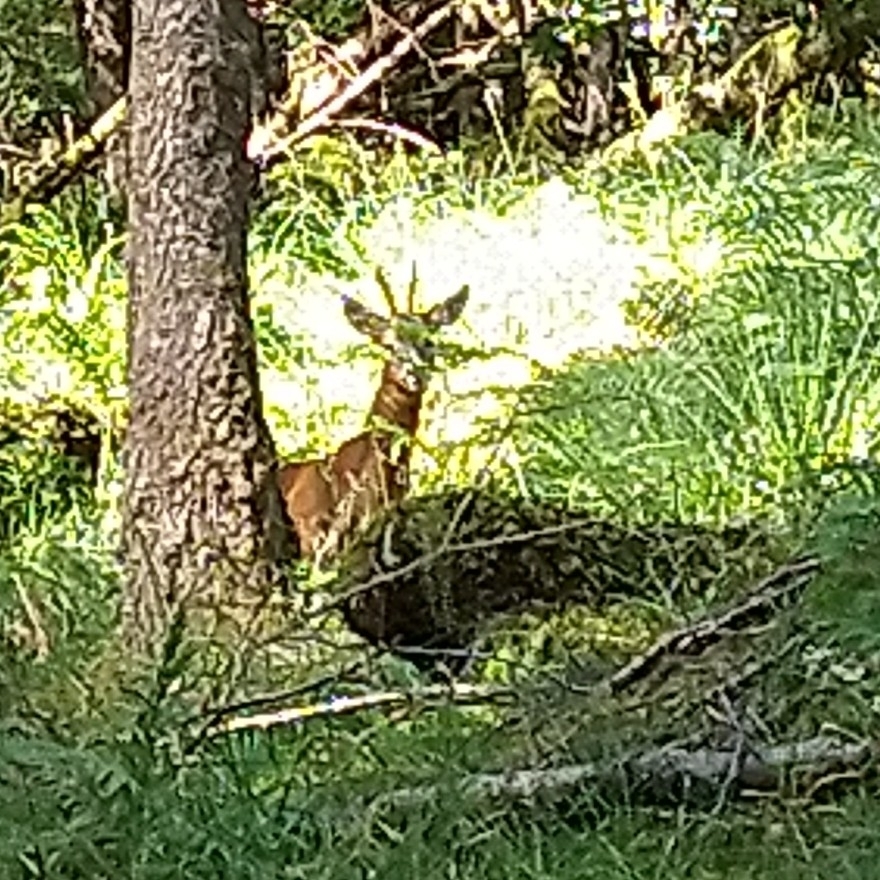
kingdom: Animalia
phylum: Chordata
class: Mammalia
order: Artiodactyla
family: Cervidae
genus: Capreolus
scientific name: Capreolus capreolus
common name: Western roe deer
